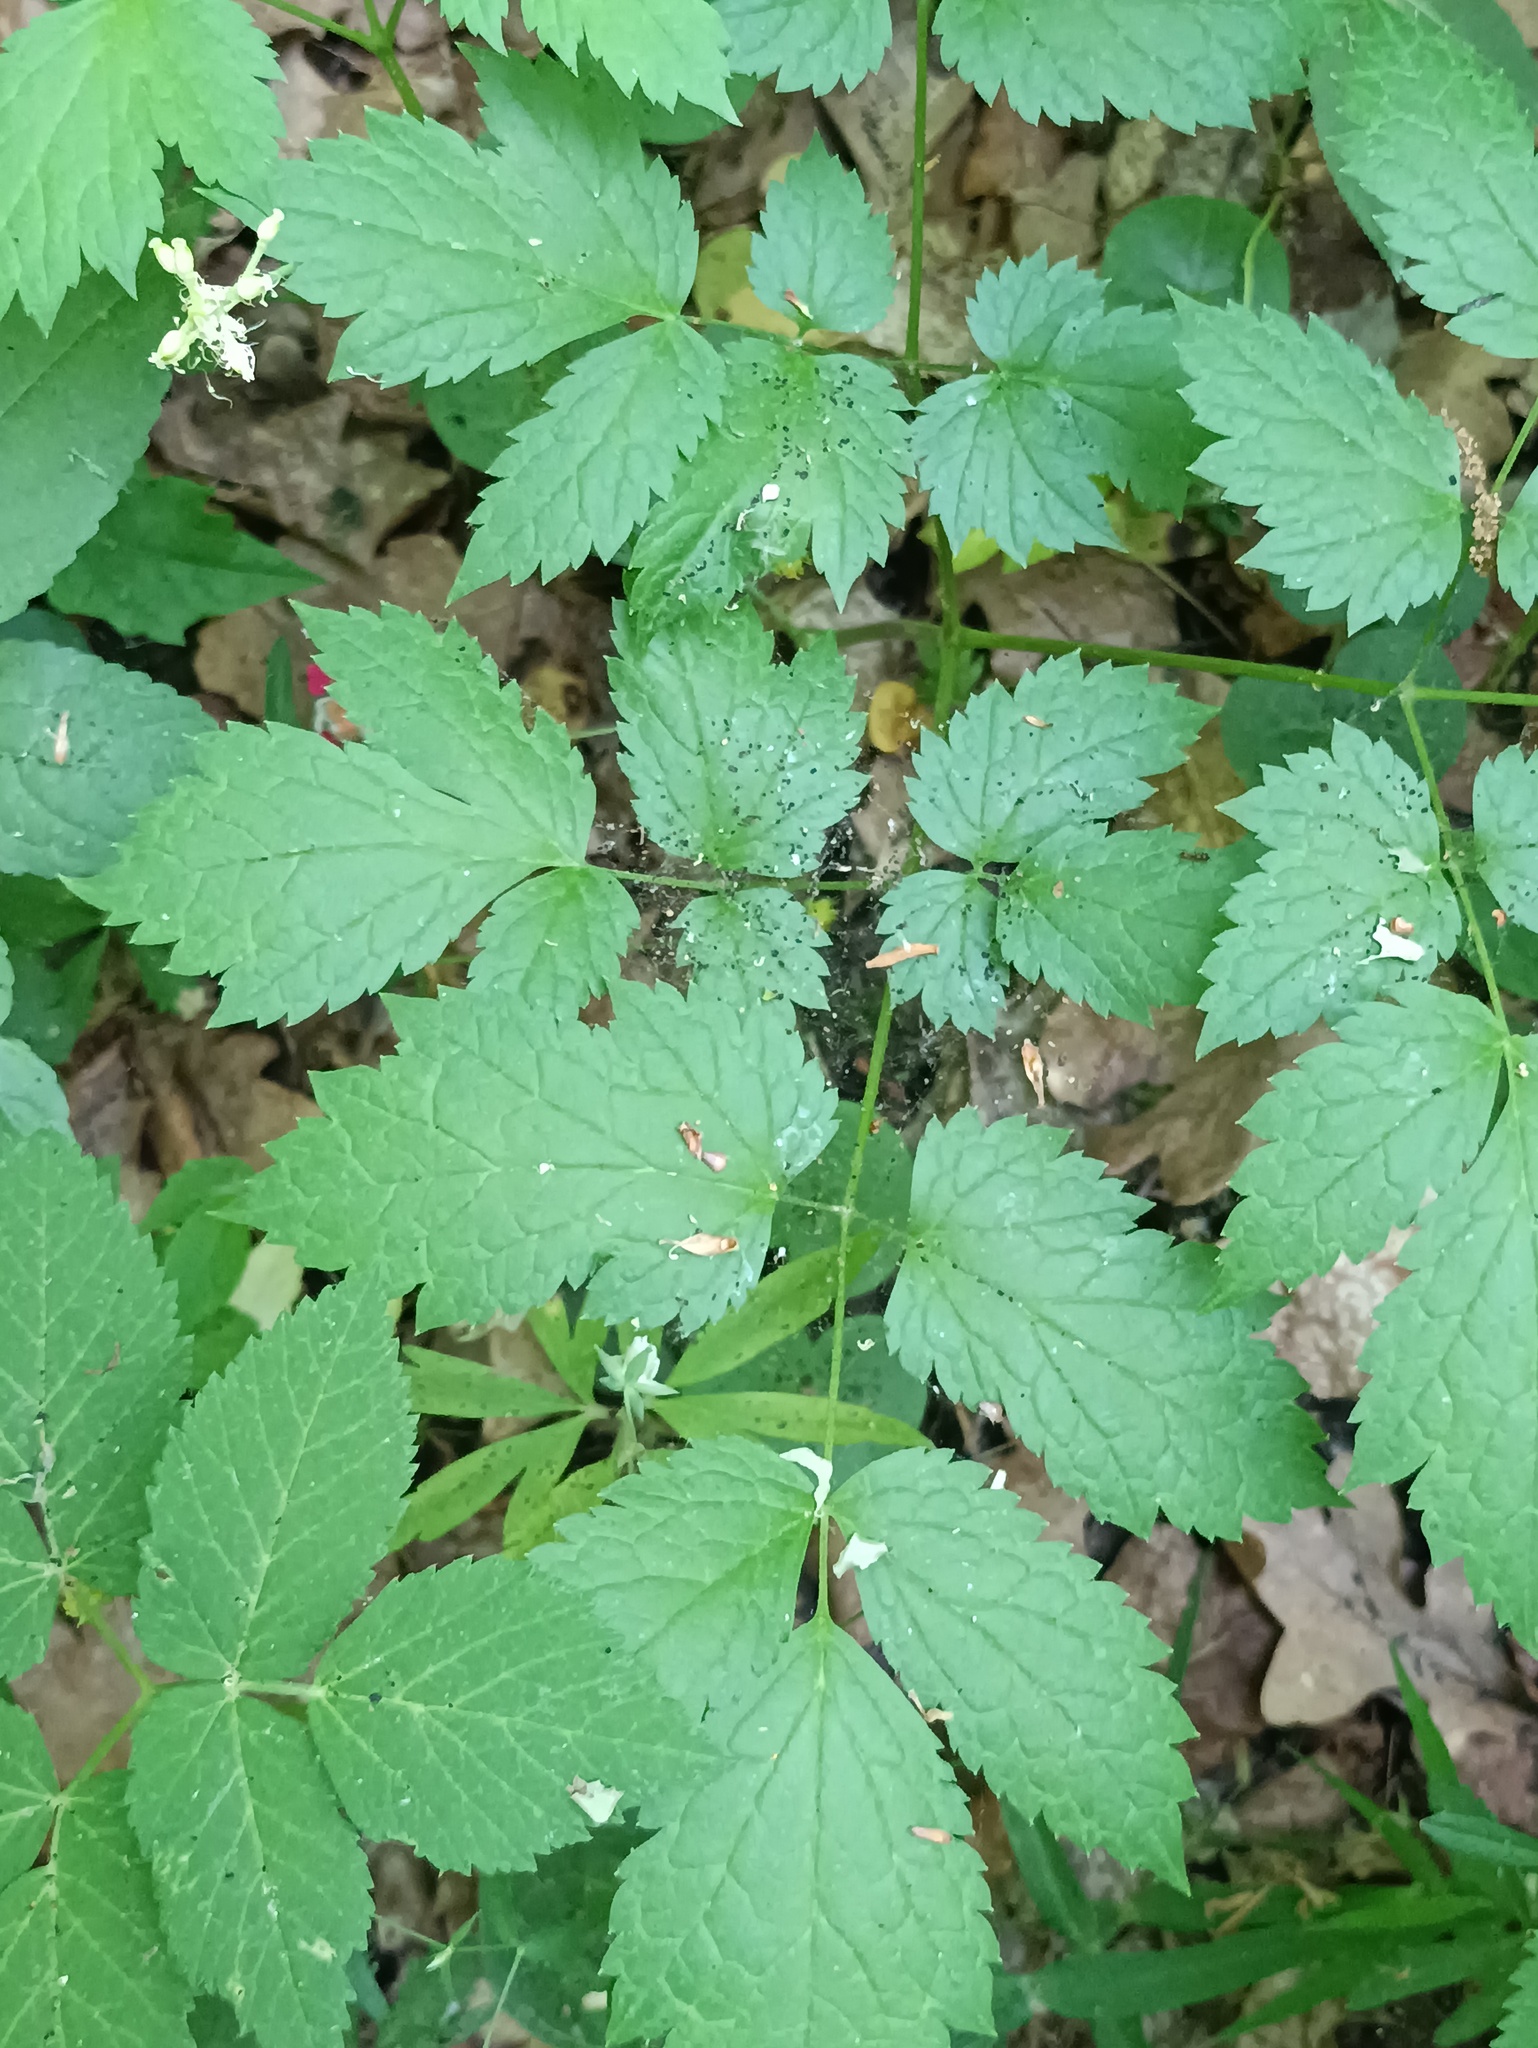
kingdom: Plantae
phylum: Tracheophyta
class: Magnoliopsida
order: Ranunculales
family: Ranunculaceae
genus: Actaea
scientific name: Actaea spicata
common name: Baneberry
